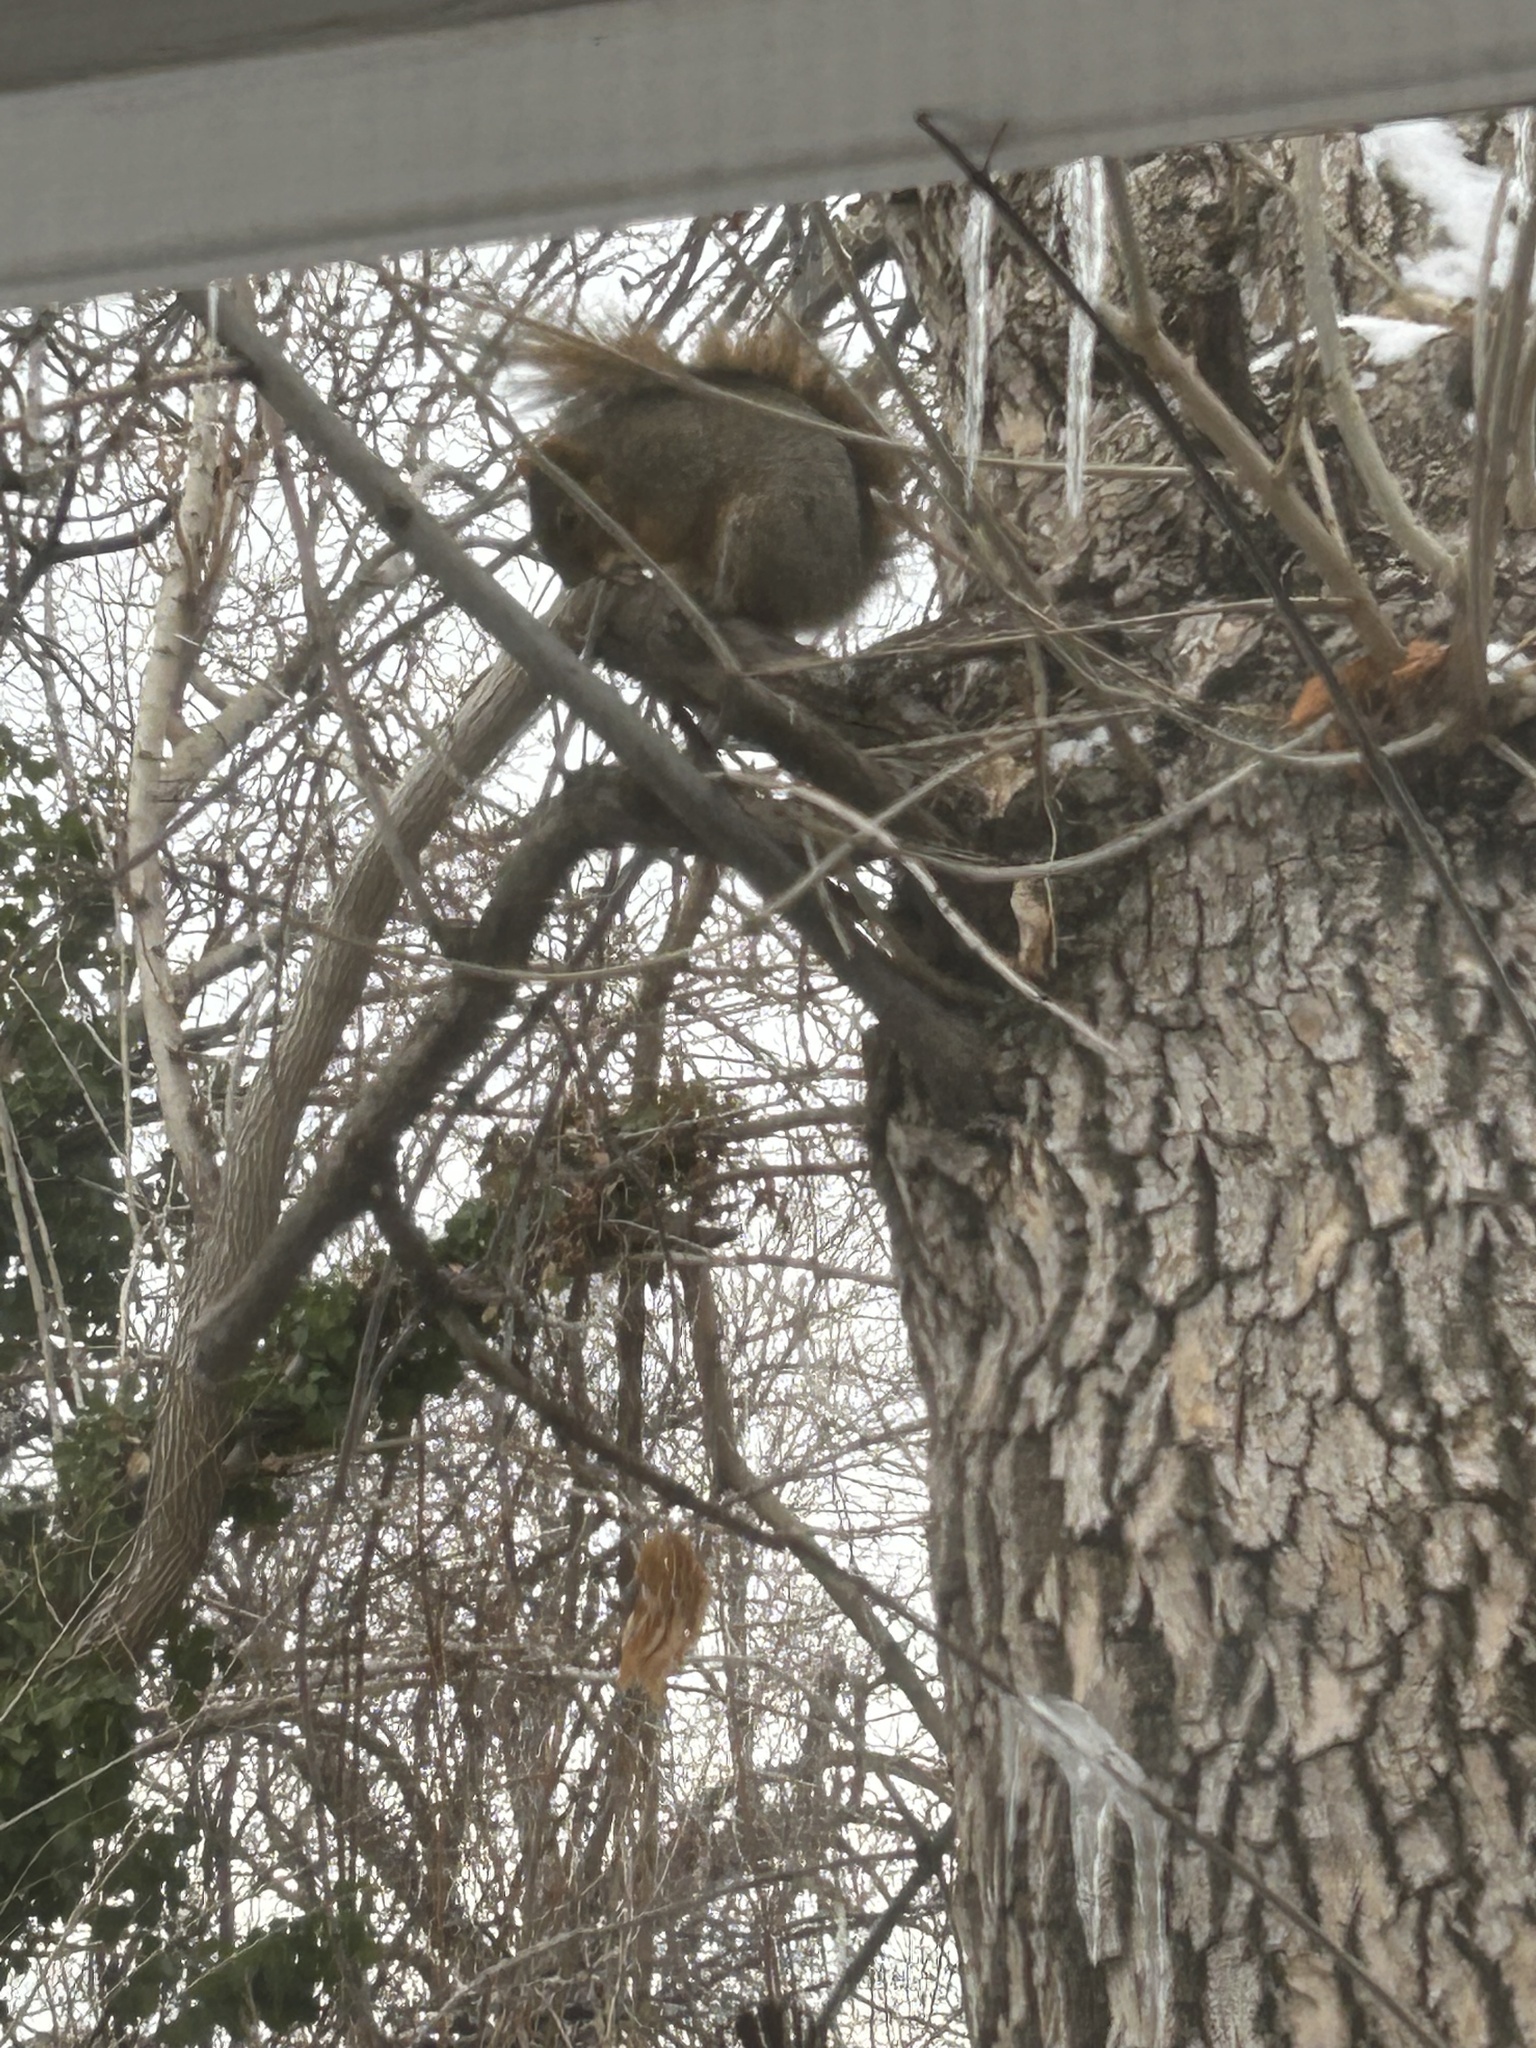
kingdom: Animalia
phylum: Chordata
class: Mammalia
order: Rodentia
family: Sciuridae
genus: Sciurus
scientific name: Sciurus niger
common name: Fox squirrel
